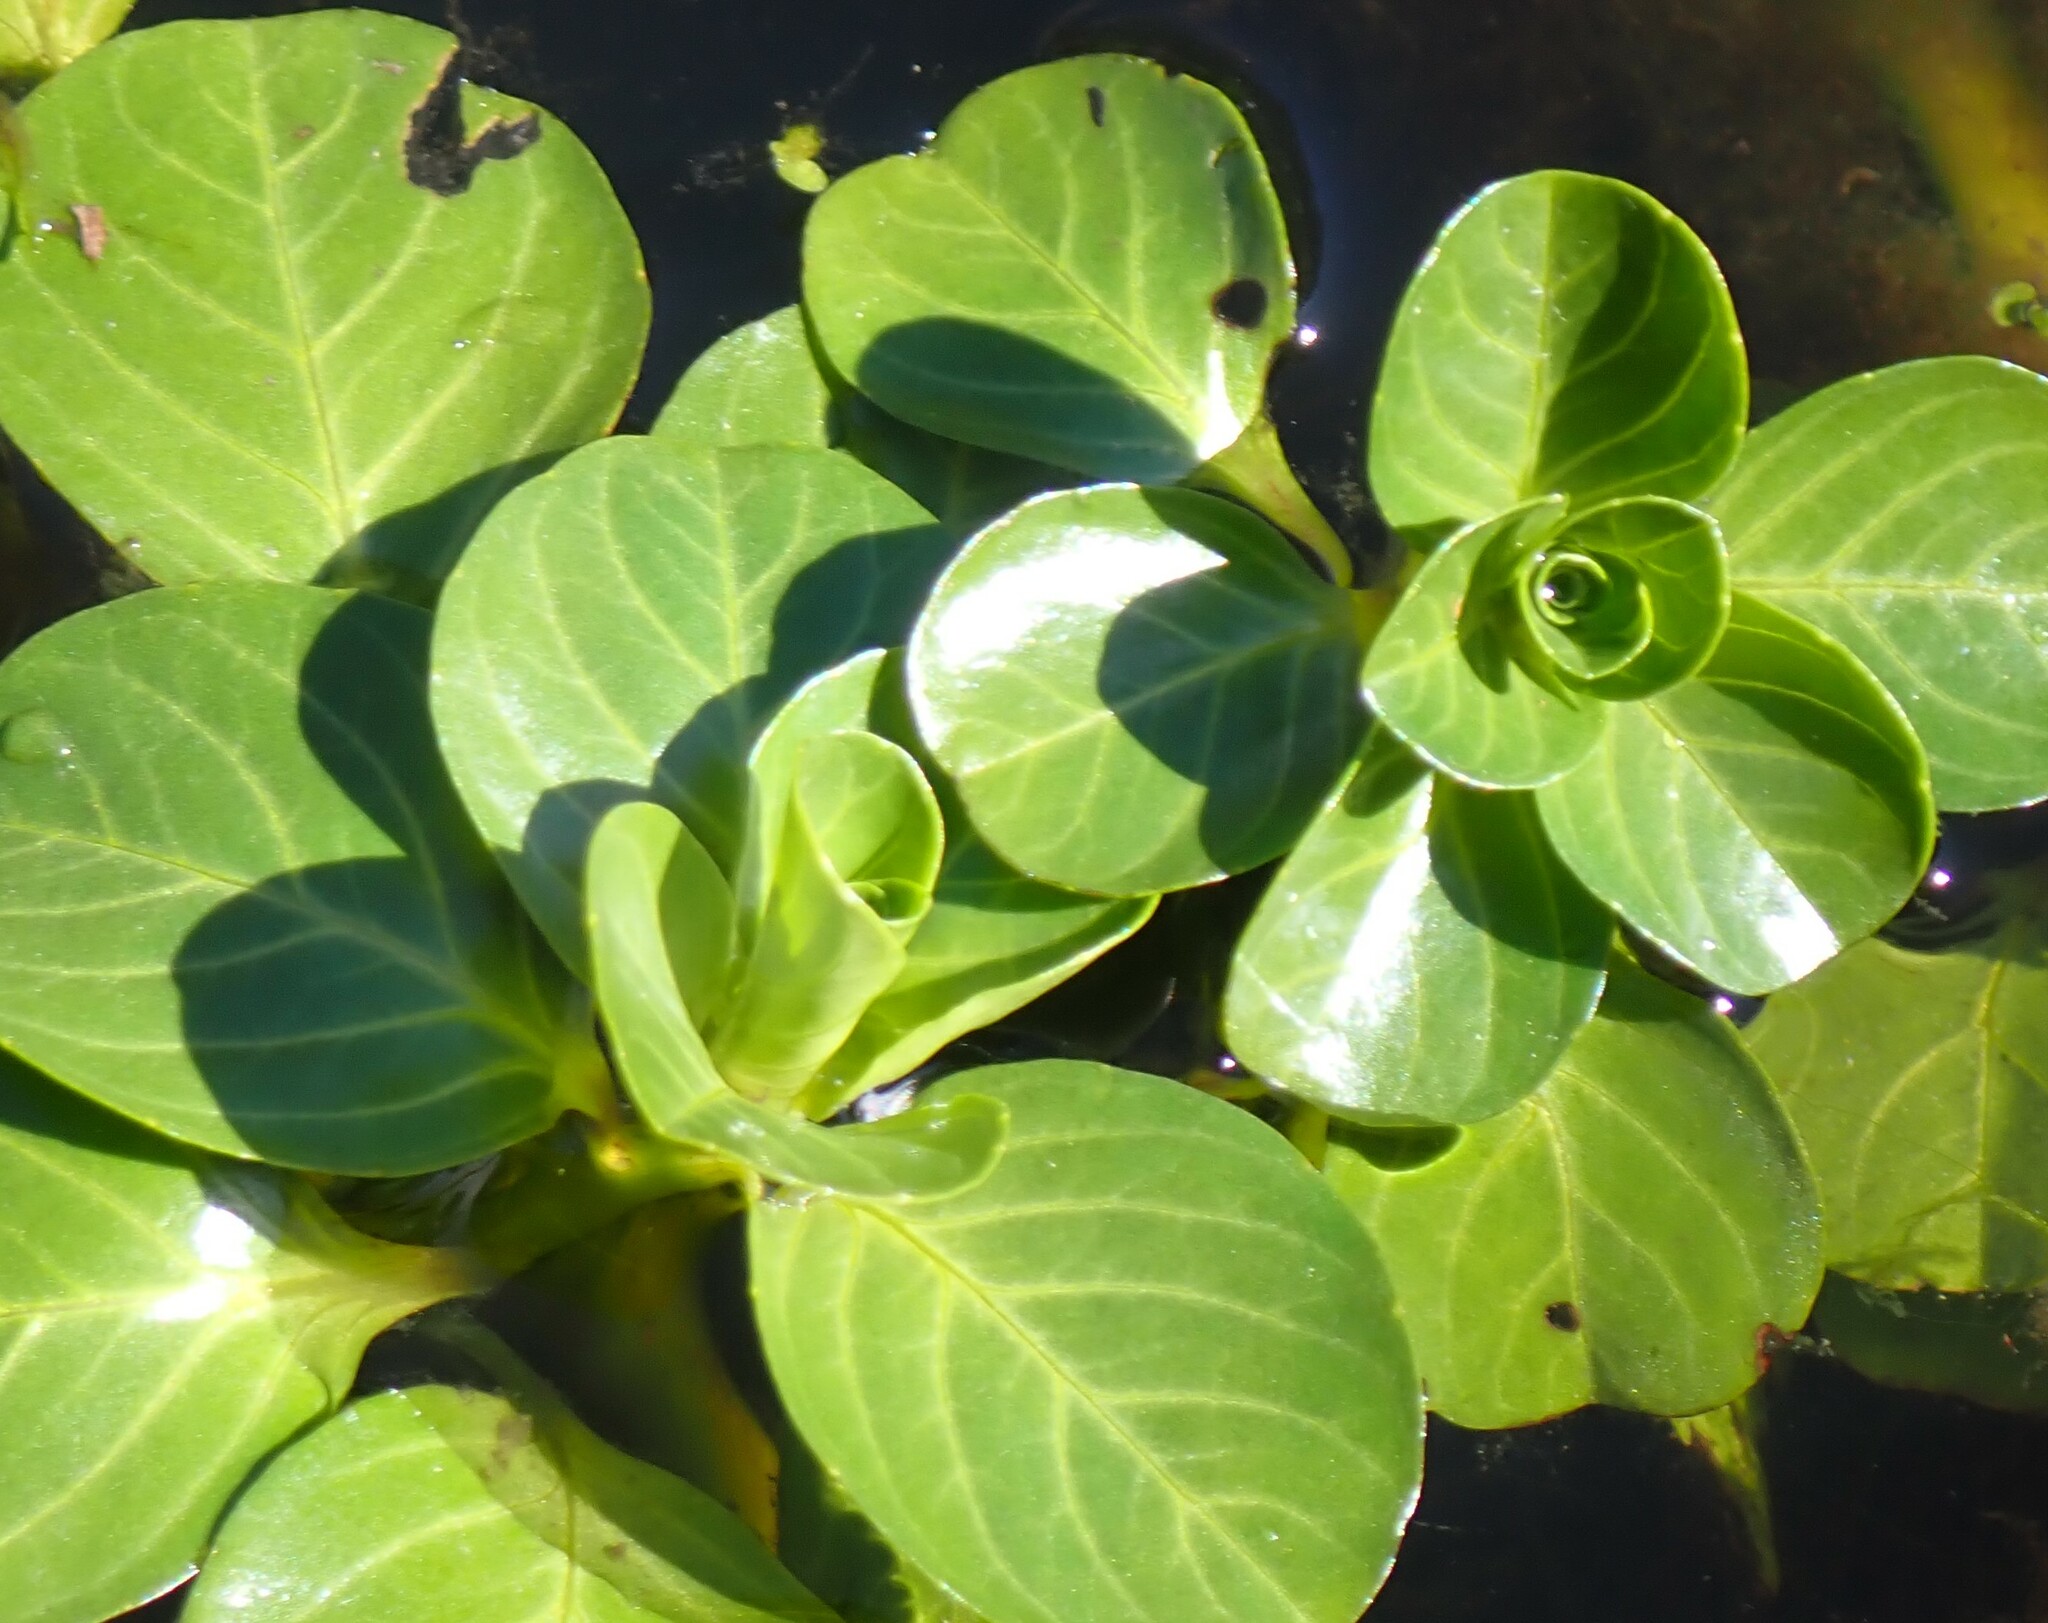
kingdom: Plantae
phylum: Tracheophyta
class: Magnoliopsida
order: Myrtales
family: Onagraceae
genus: Ludwigia
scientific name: Ludwigia peploides
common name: Floating primrose-willow
